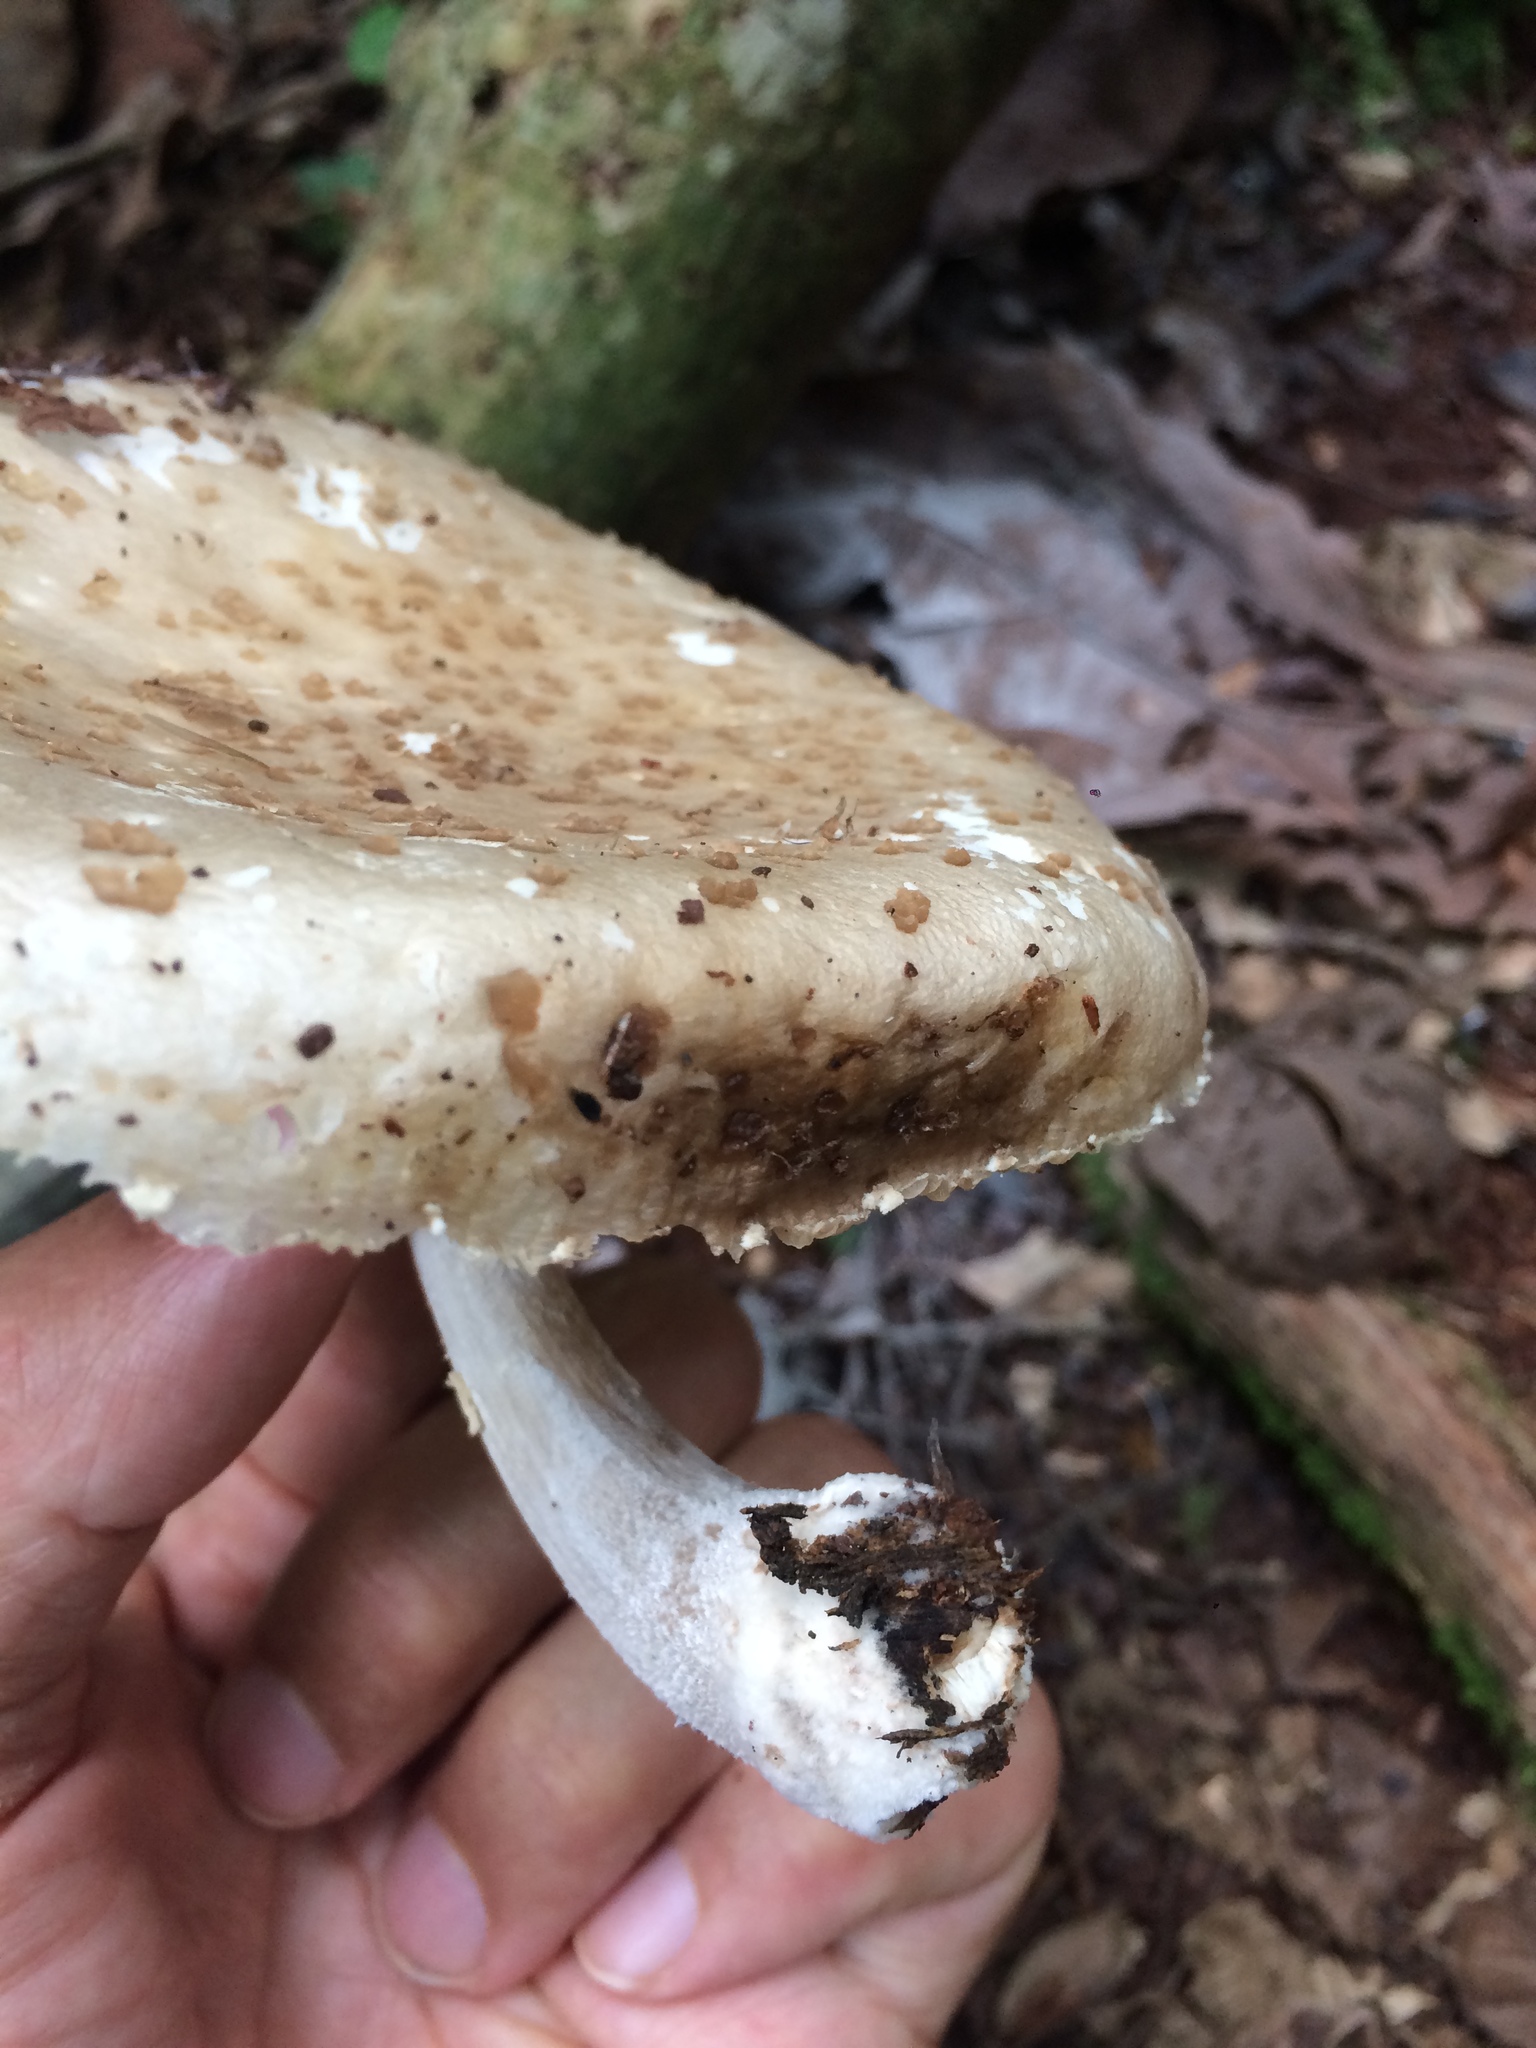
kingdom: Fungi
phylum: Basidiomycota
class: Agaricomycetes
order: Agaricales
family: Physalacriaceae
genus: Oudemansiella
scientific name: Oudemansiella cubensis
